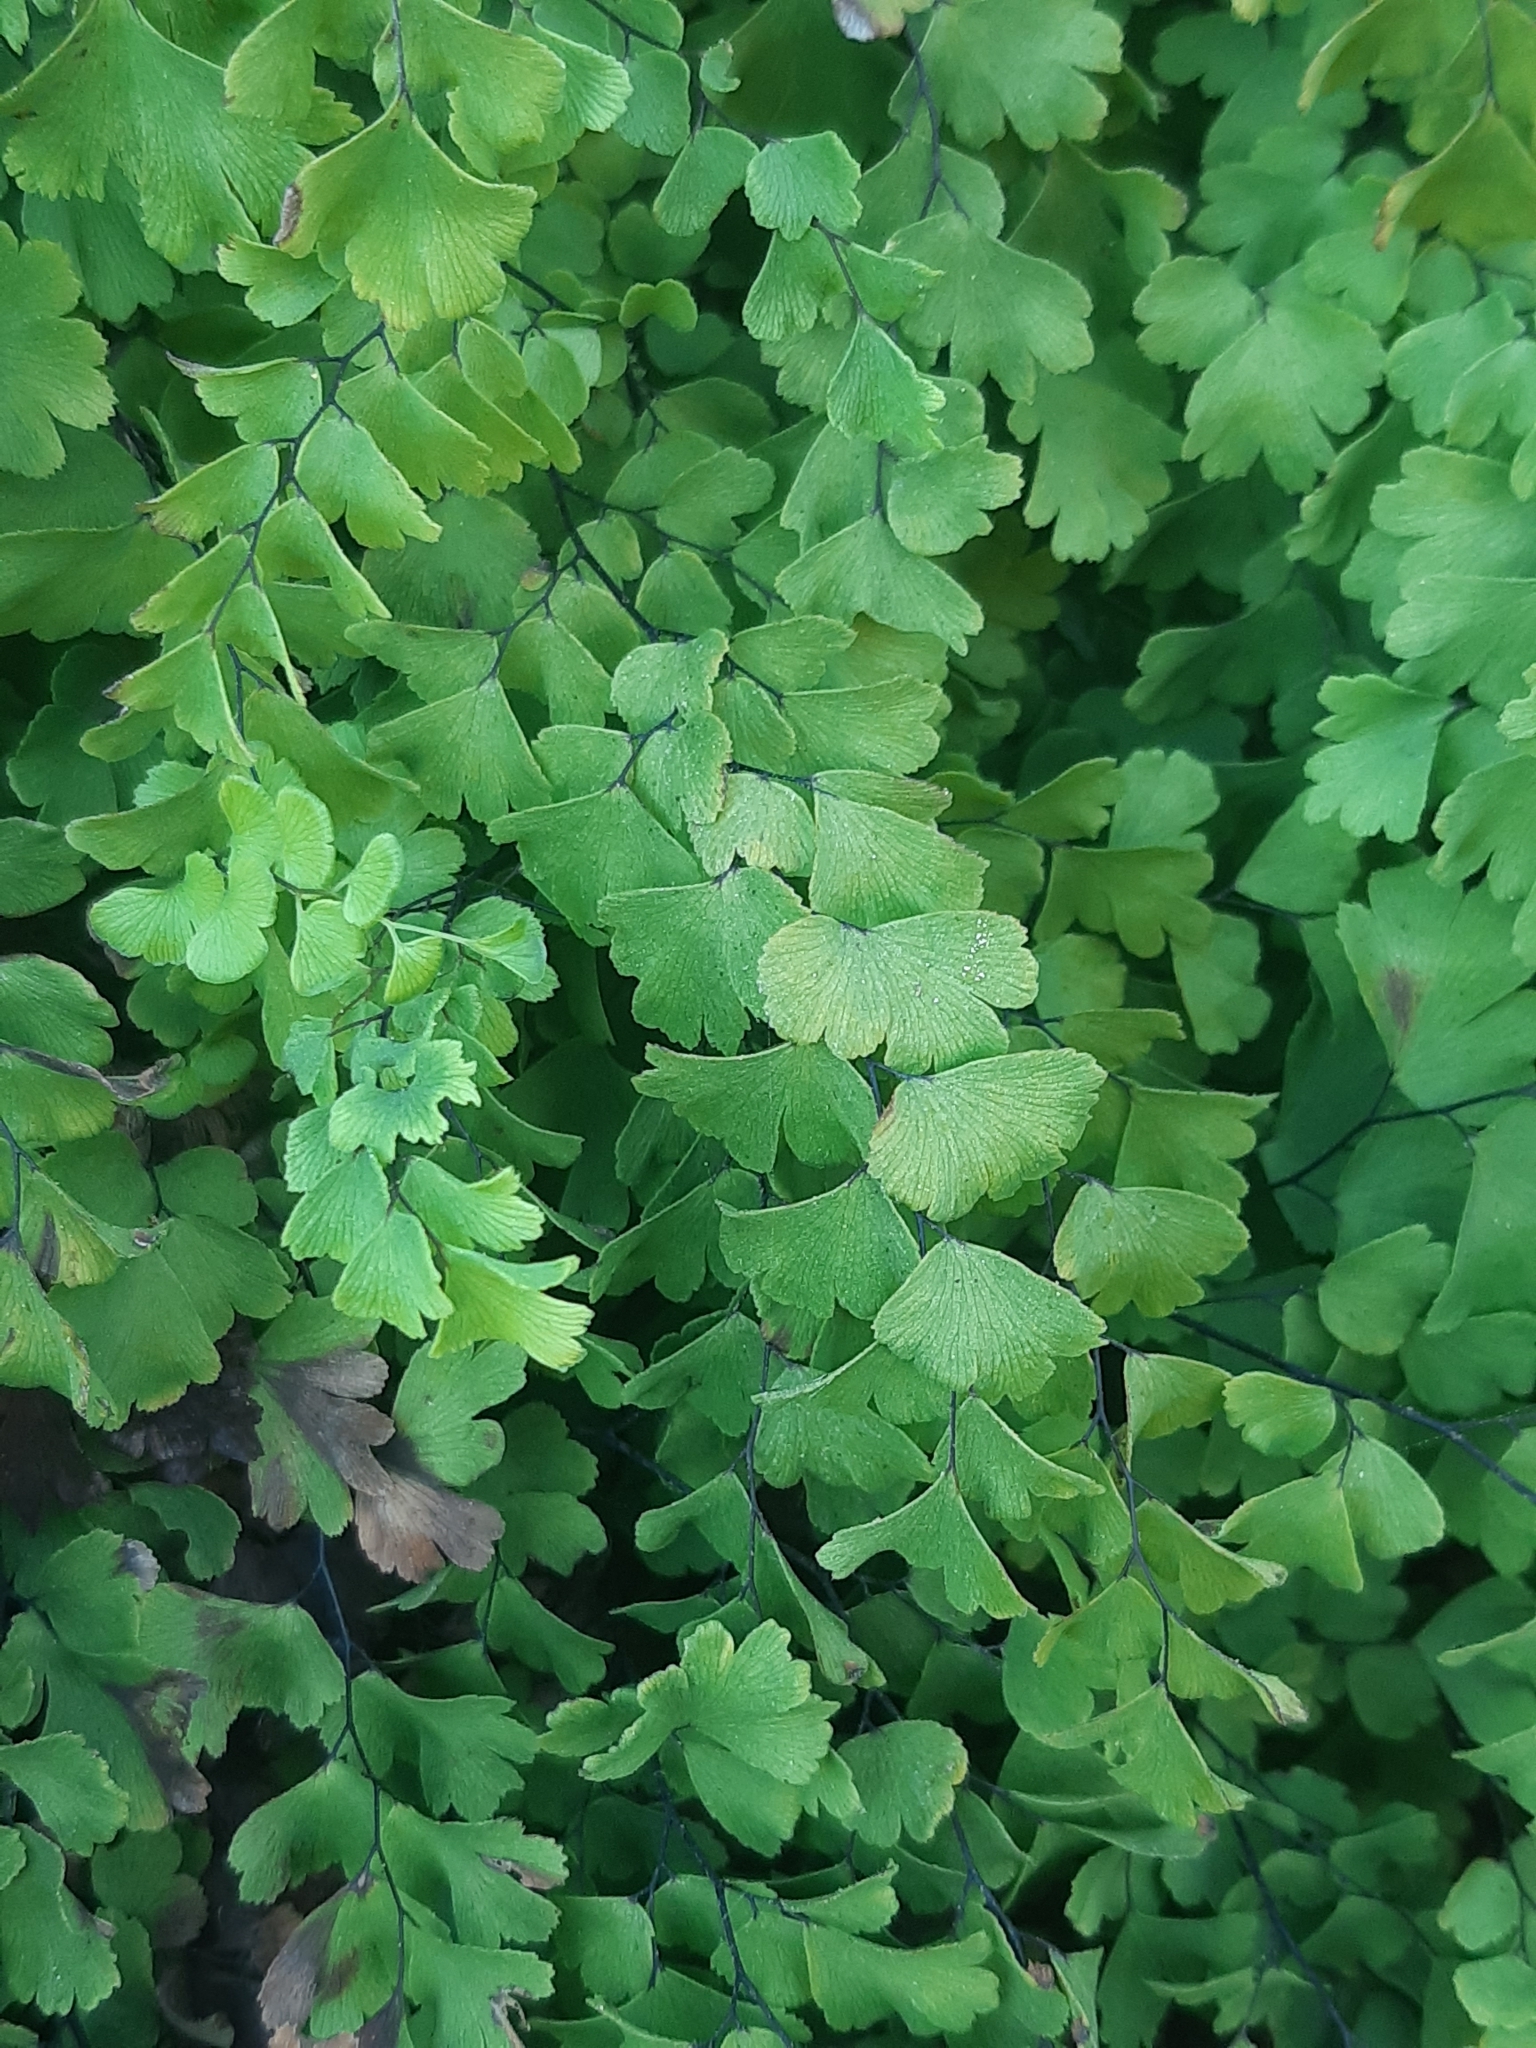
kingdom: Plantae
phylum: Tracheophyta
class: Polypodiopsida
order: Polypodiales
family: Pteridaceae
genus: Adiantum
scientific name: Adiantum capillus-veneris
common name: Maidenhair fern
